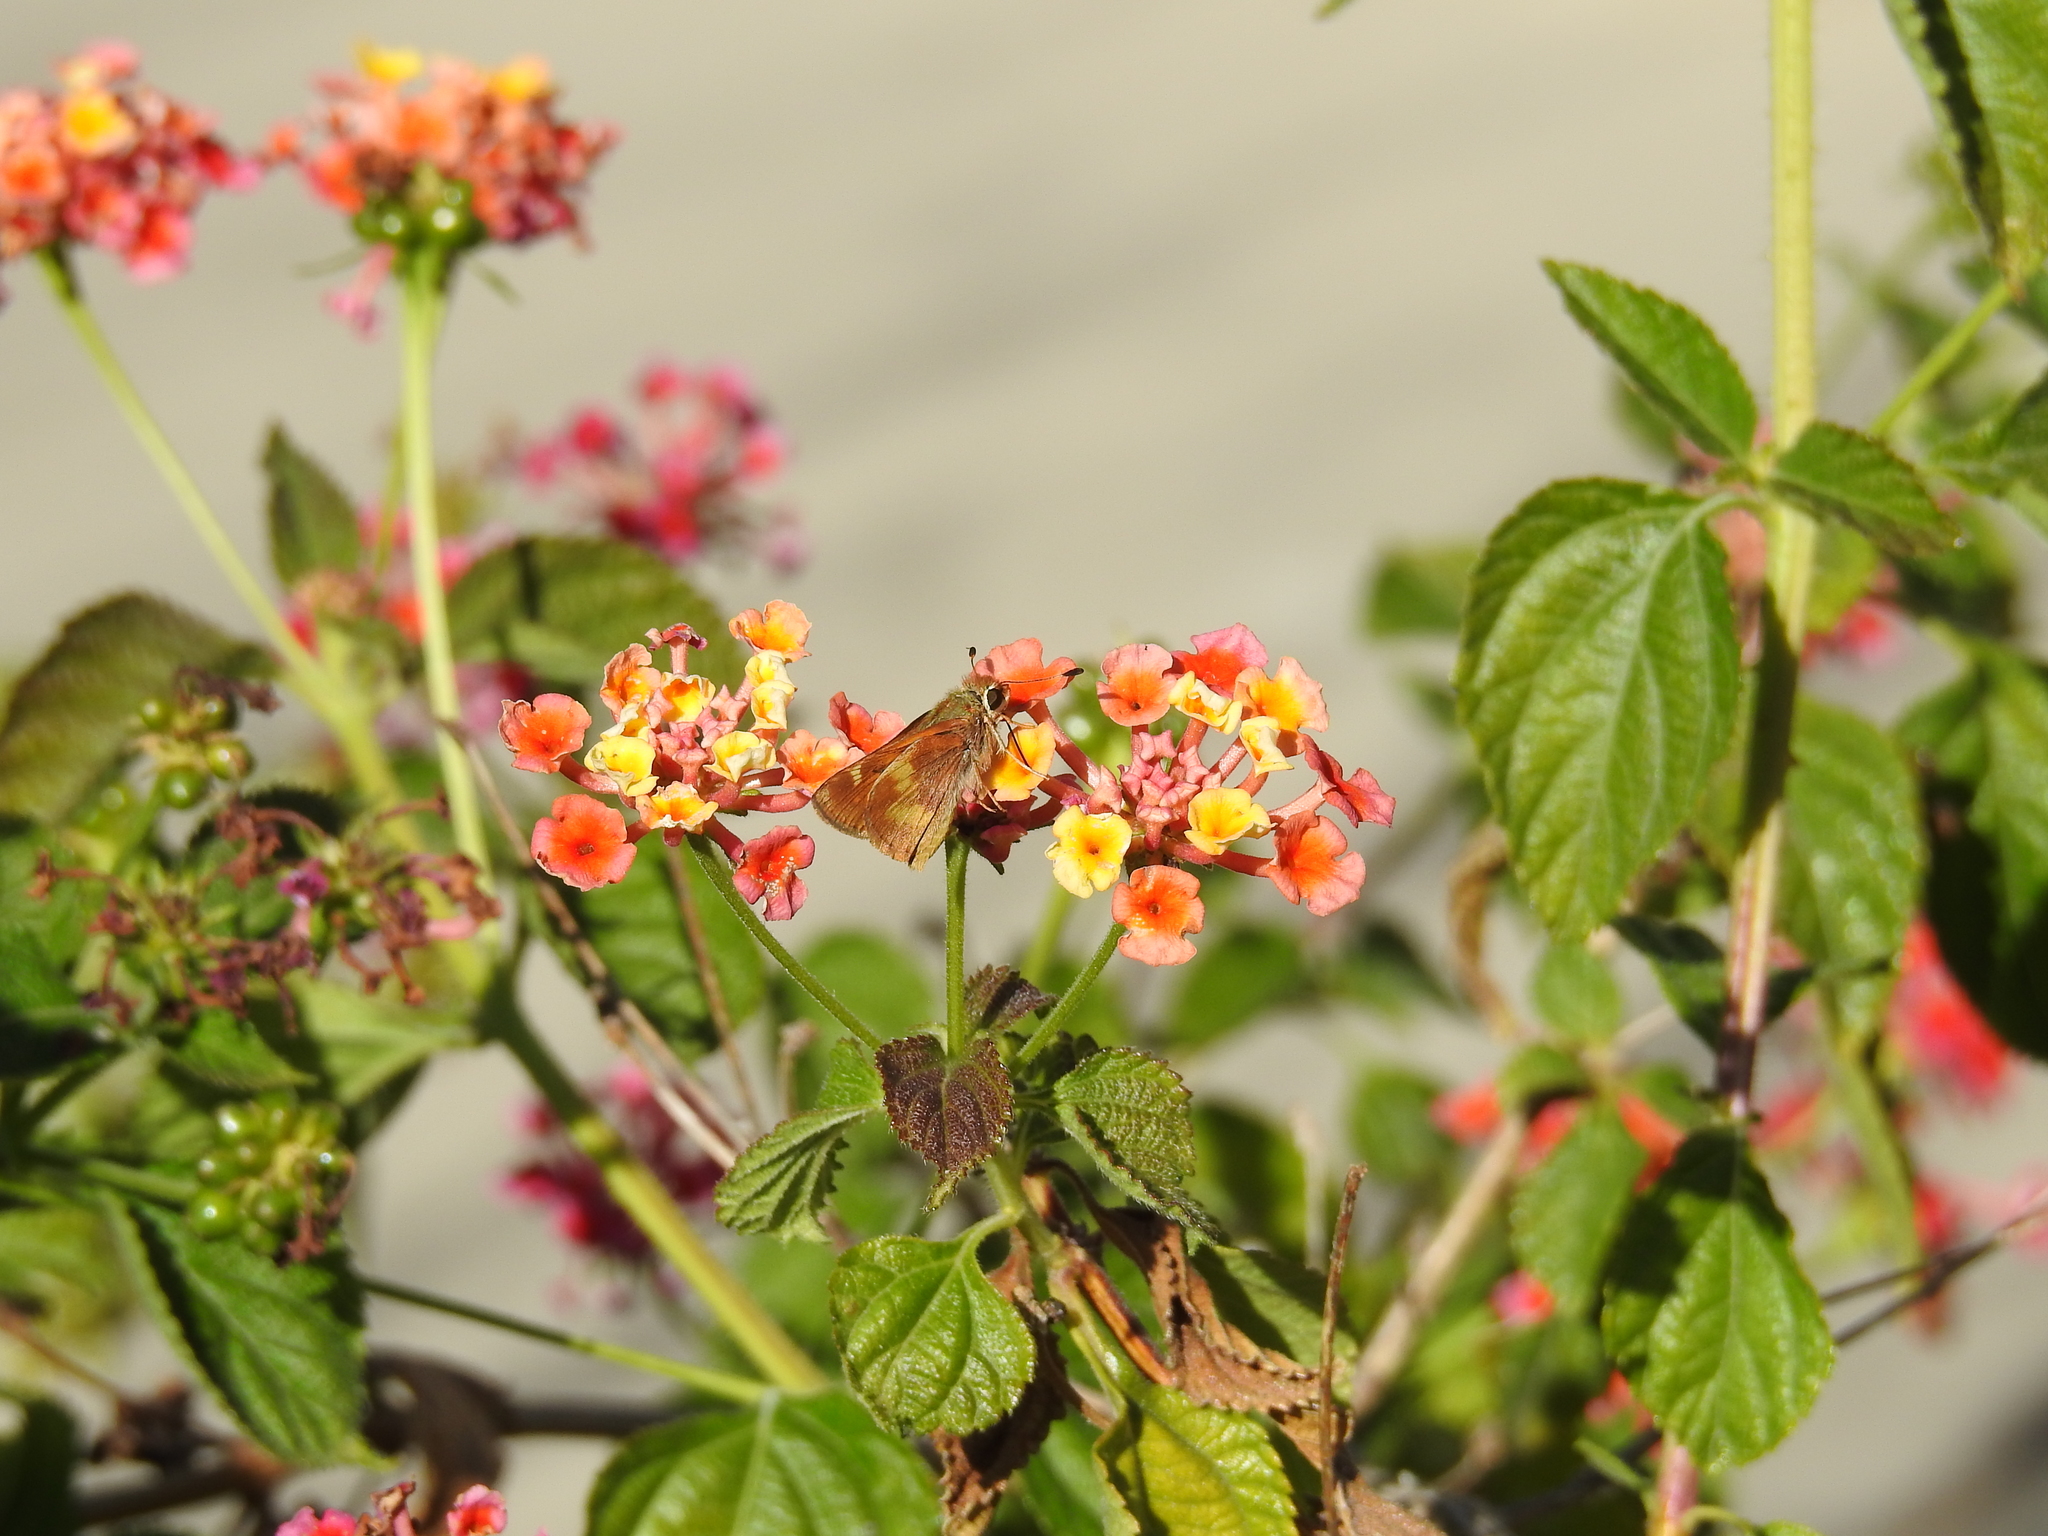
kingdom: Animalia
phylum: Arthropoda
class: Insecta
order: Lepidoptera
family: Hesperiidae
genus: Lon
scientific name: Lon melane
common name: Umber skipper
